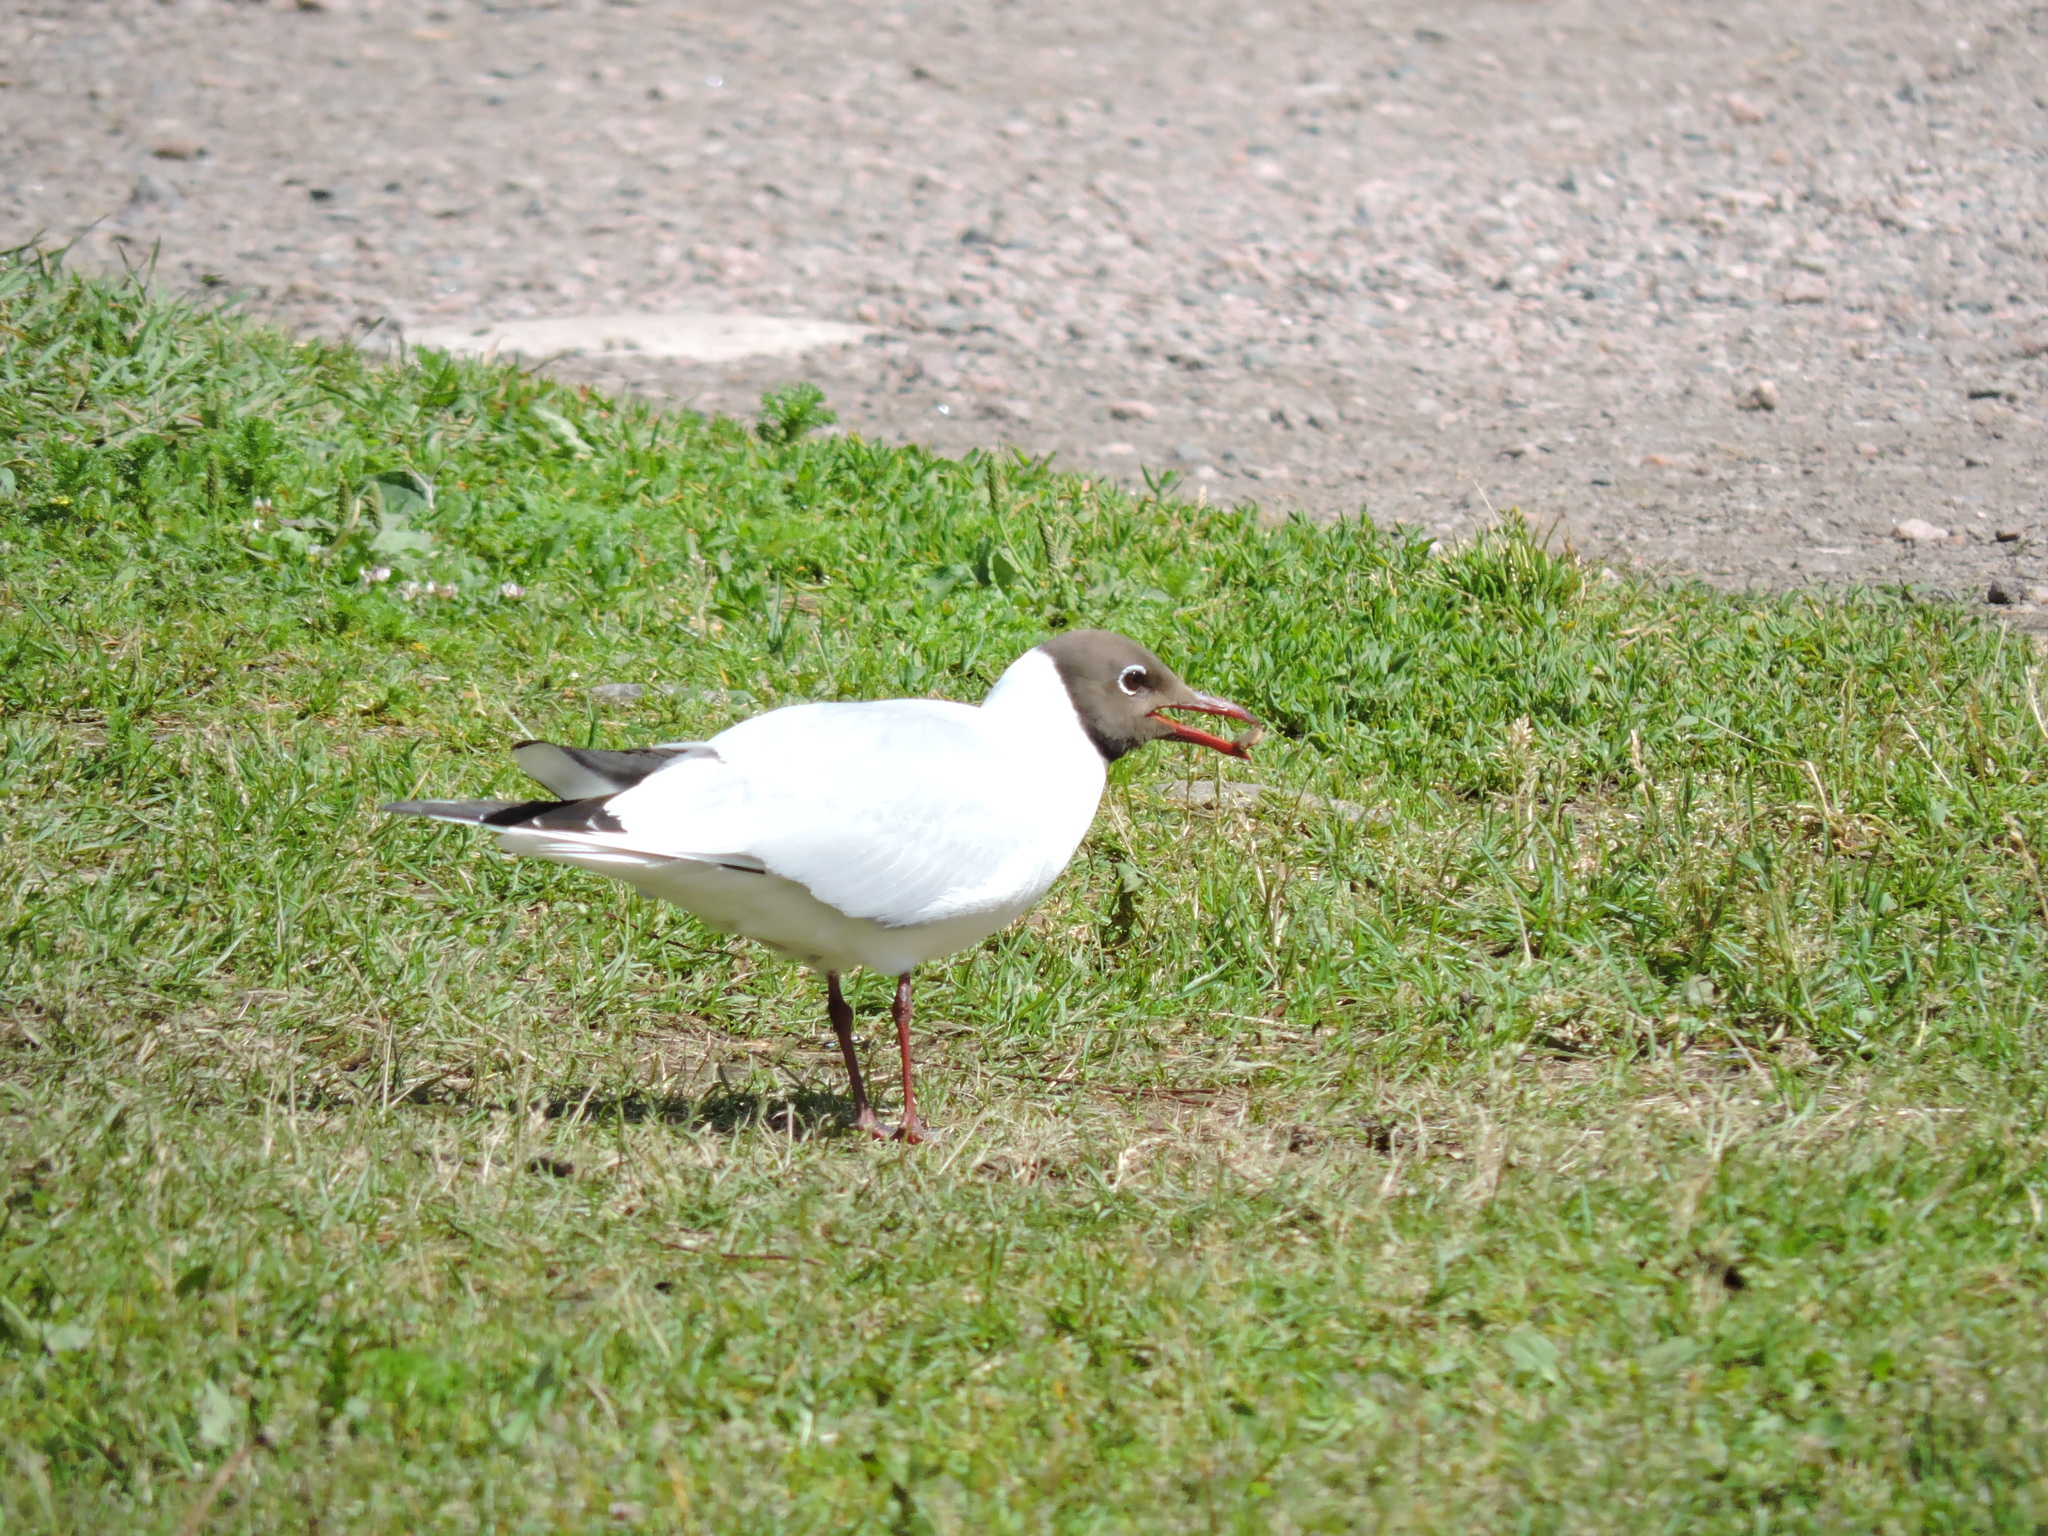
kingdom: Animalia
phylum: Chordata
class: Aves
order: Charadriiformes
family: Laridae
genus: Chroicocephalus
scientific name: Chroicocephalus ridibundus
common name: Black-headed gull
